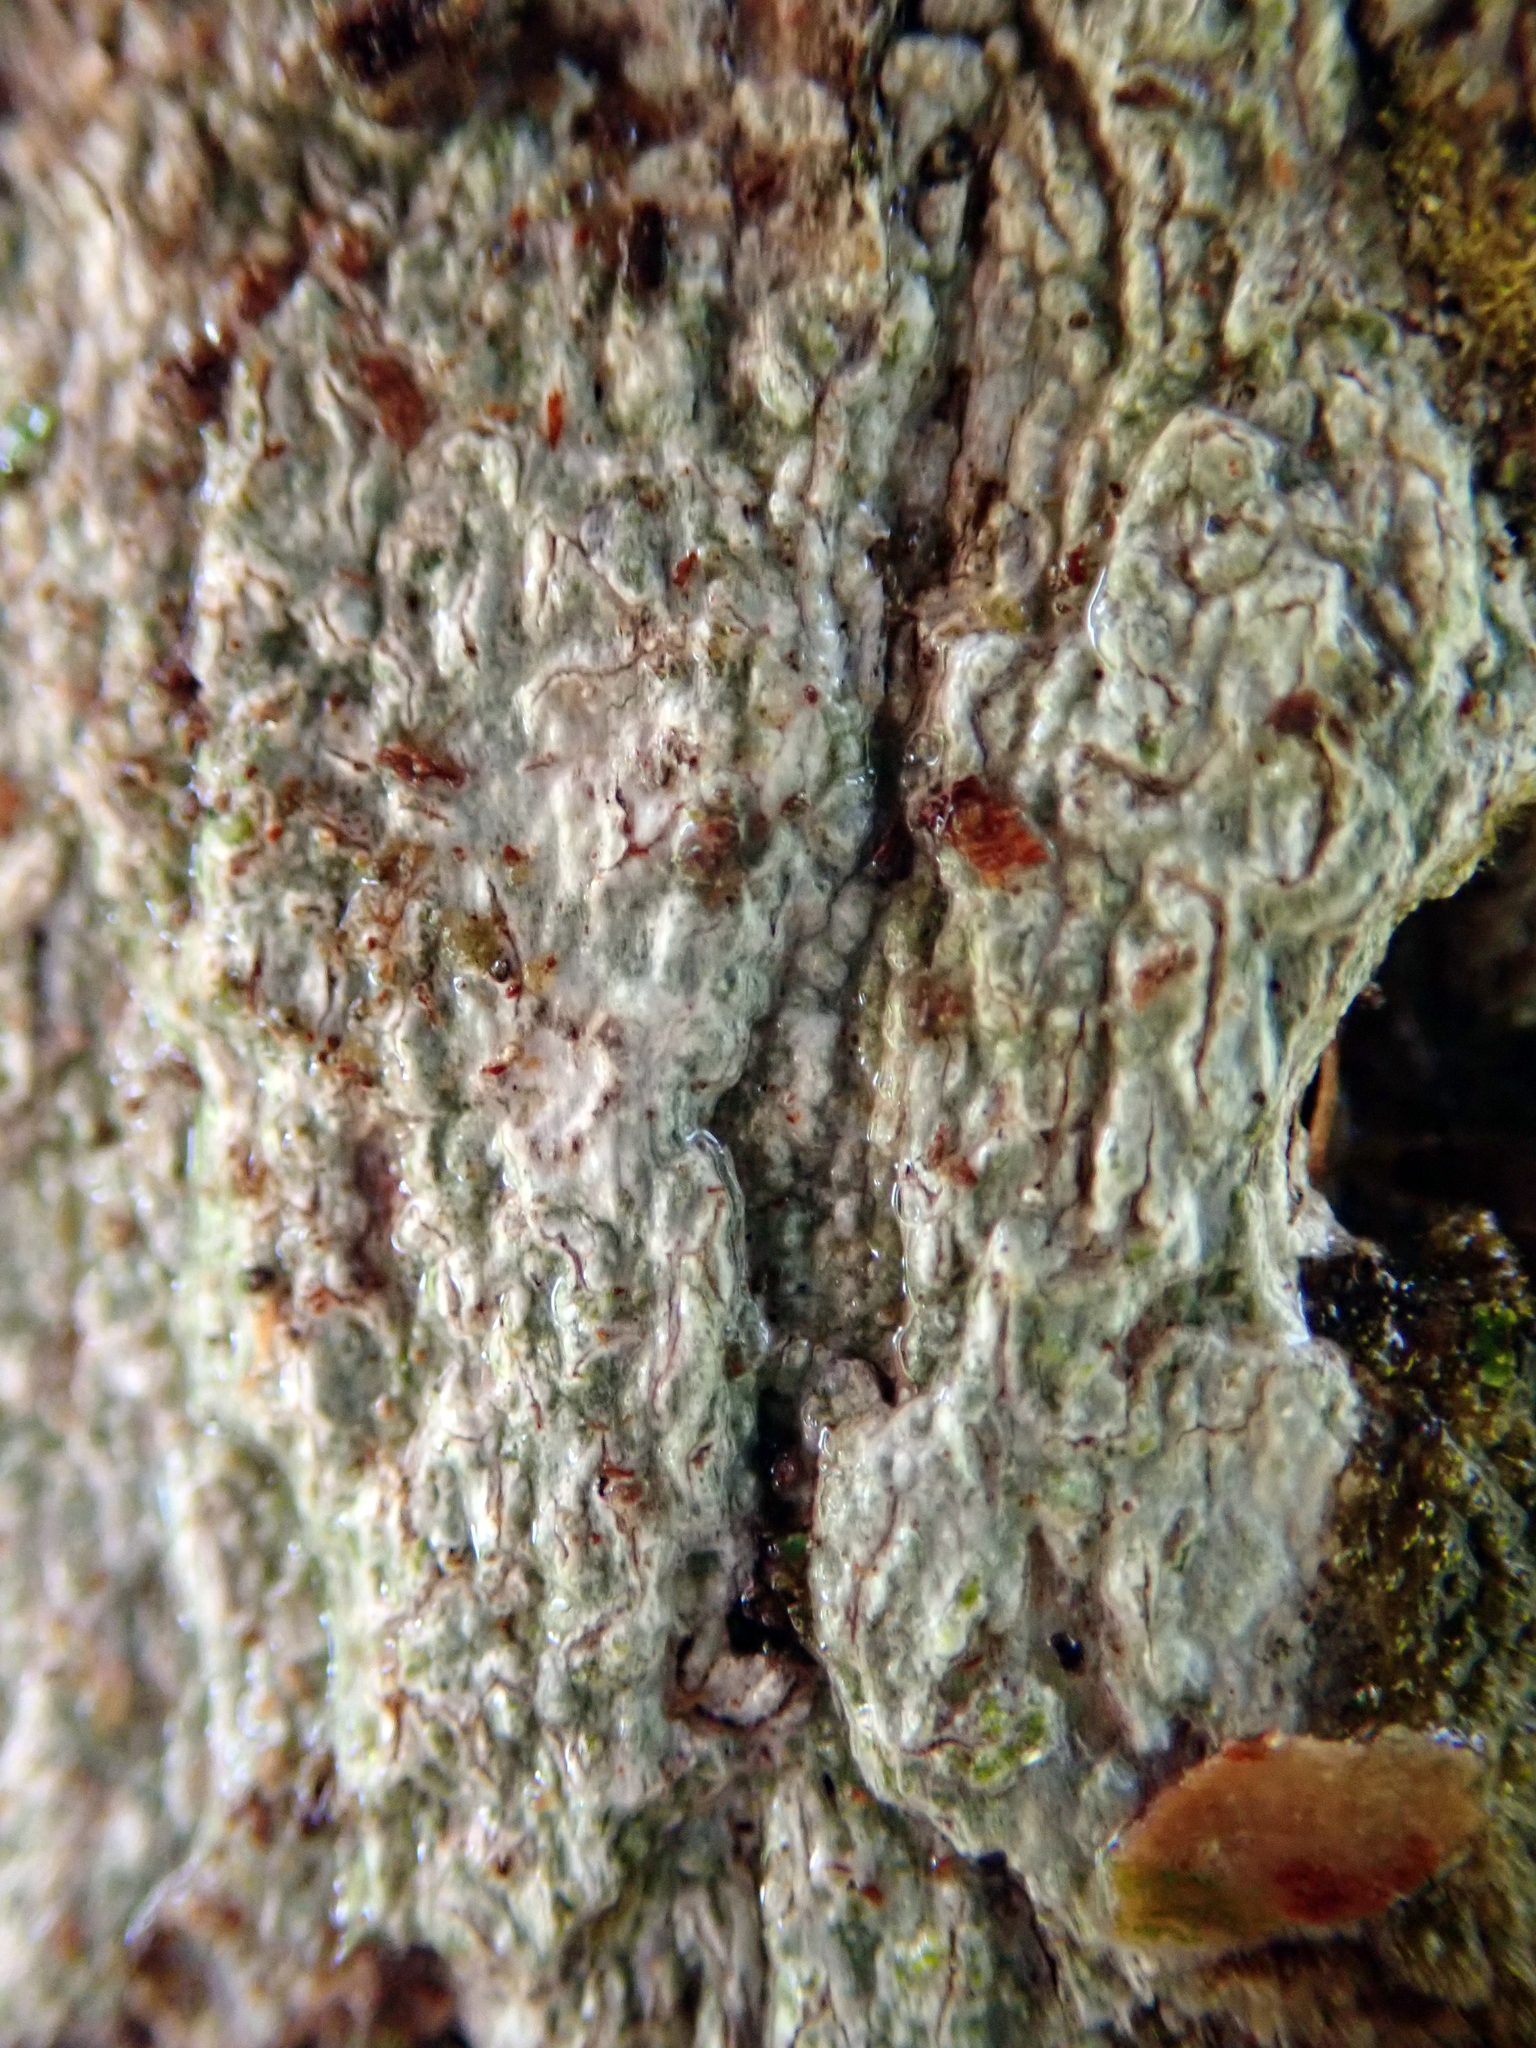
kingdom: Fungi
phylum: Ascomycota
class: Lecanoromycetes
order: Ostropales
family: Graphidaceae
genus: Fissurina
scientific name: Fissurina triticea
